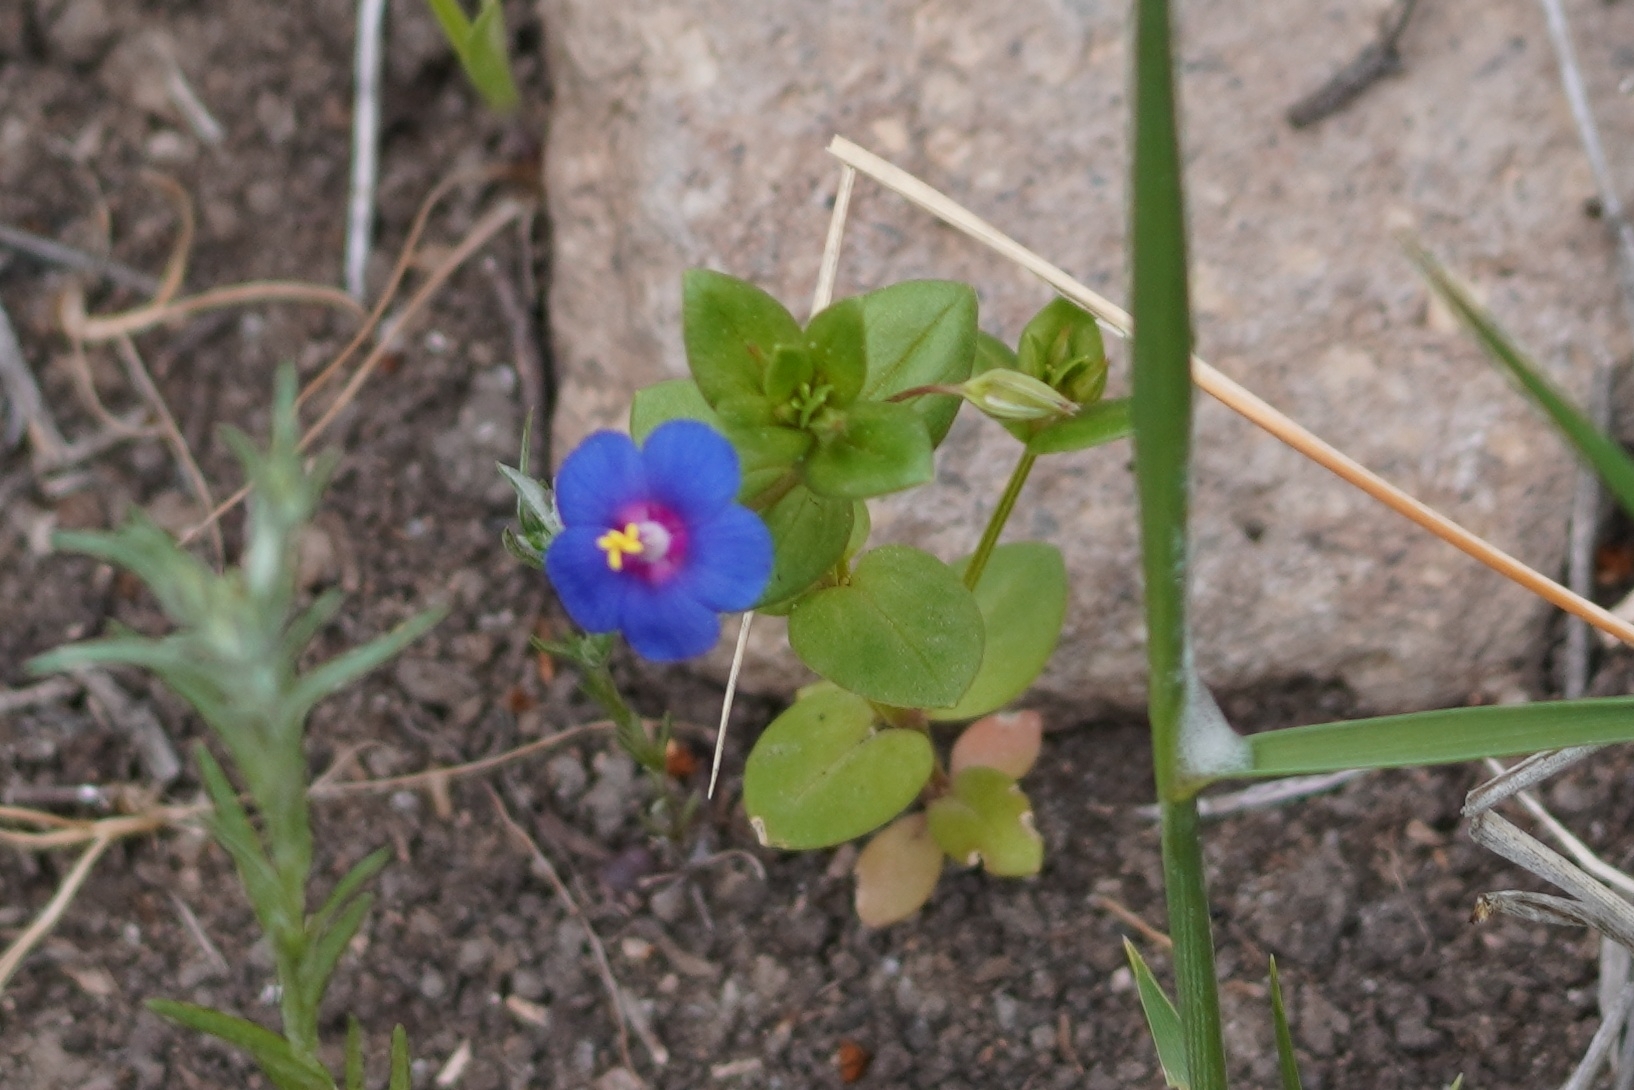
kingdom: Plantae
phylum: Tracheophyta
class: Magnoliopsida
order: Ericales
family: Primulaceae
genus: Lysimachia
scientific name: Lysimachia foemina
